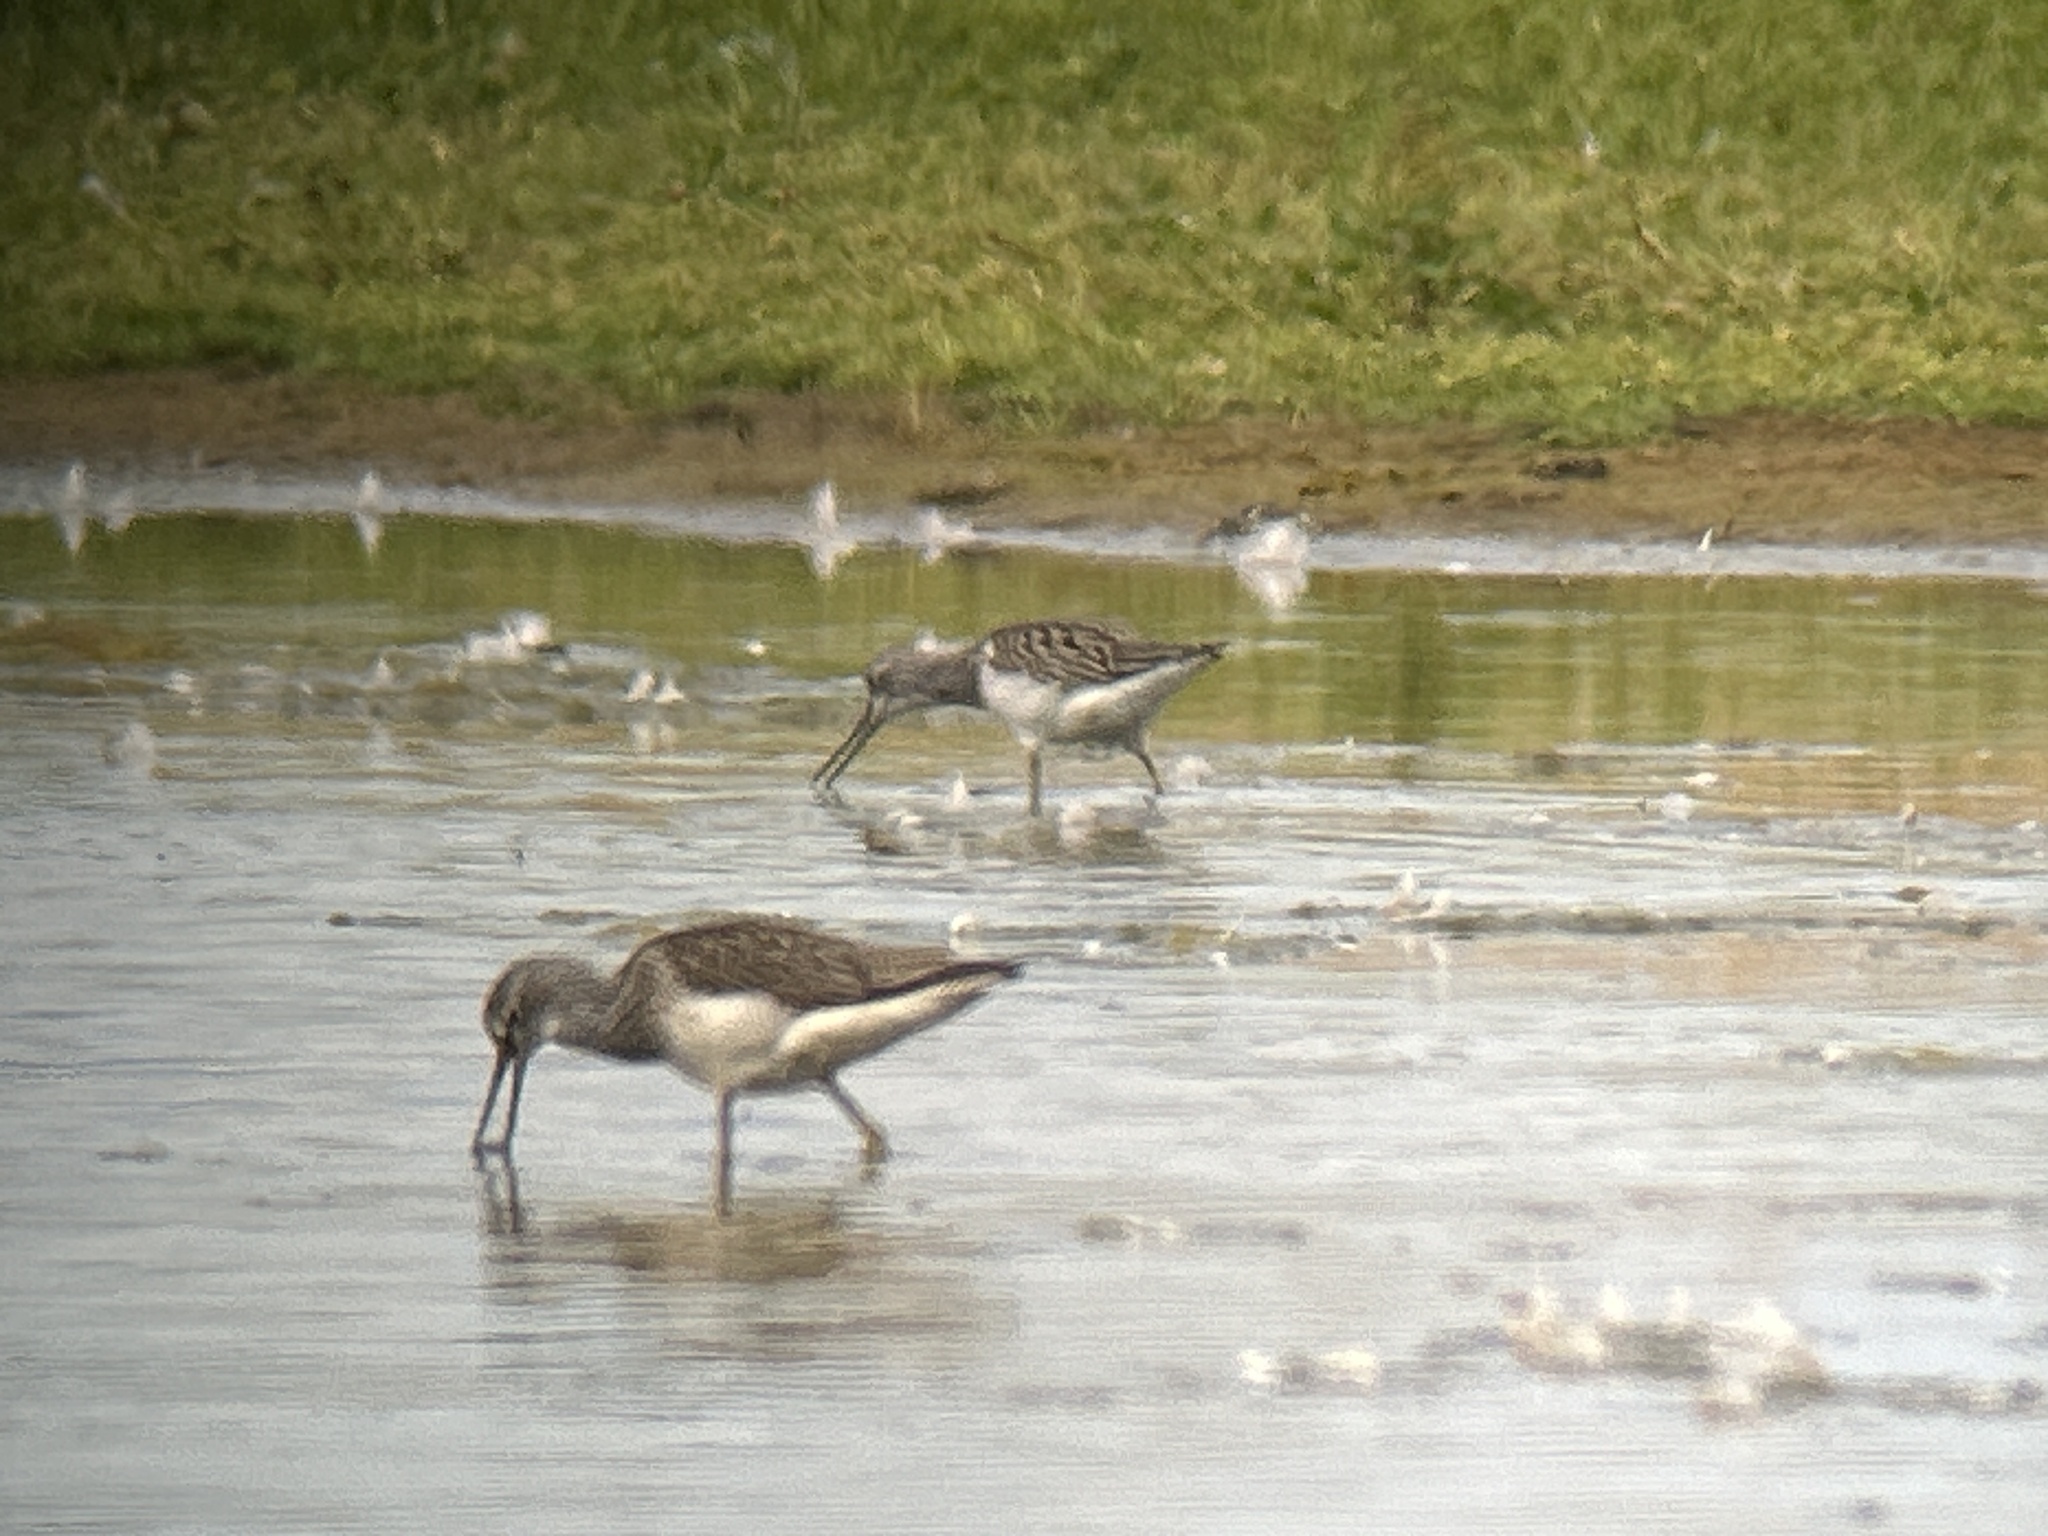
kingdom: Animalia
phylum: Chordata
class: Aves
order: Charadriiformes
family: Scolopacidae
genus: Tringa
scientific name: Tringa nebularia
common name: Common greenshank
